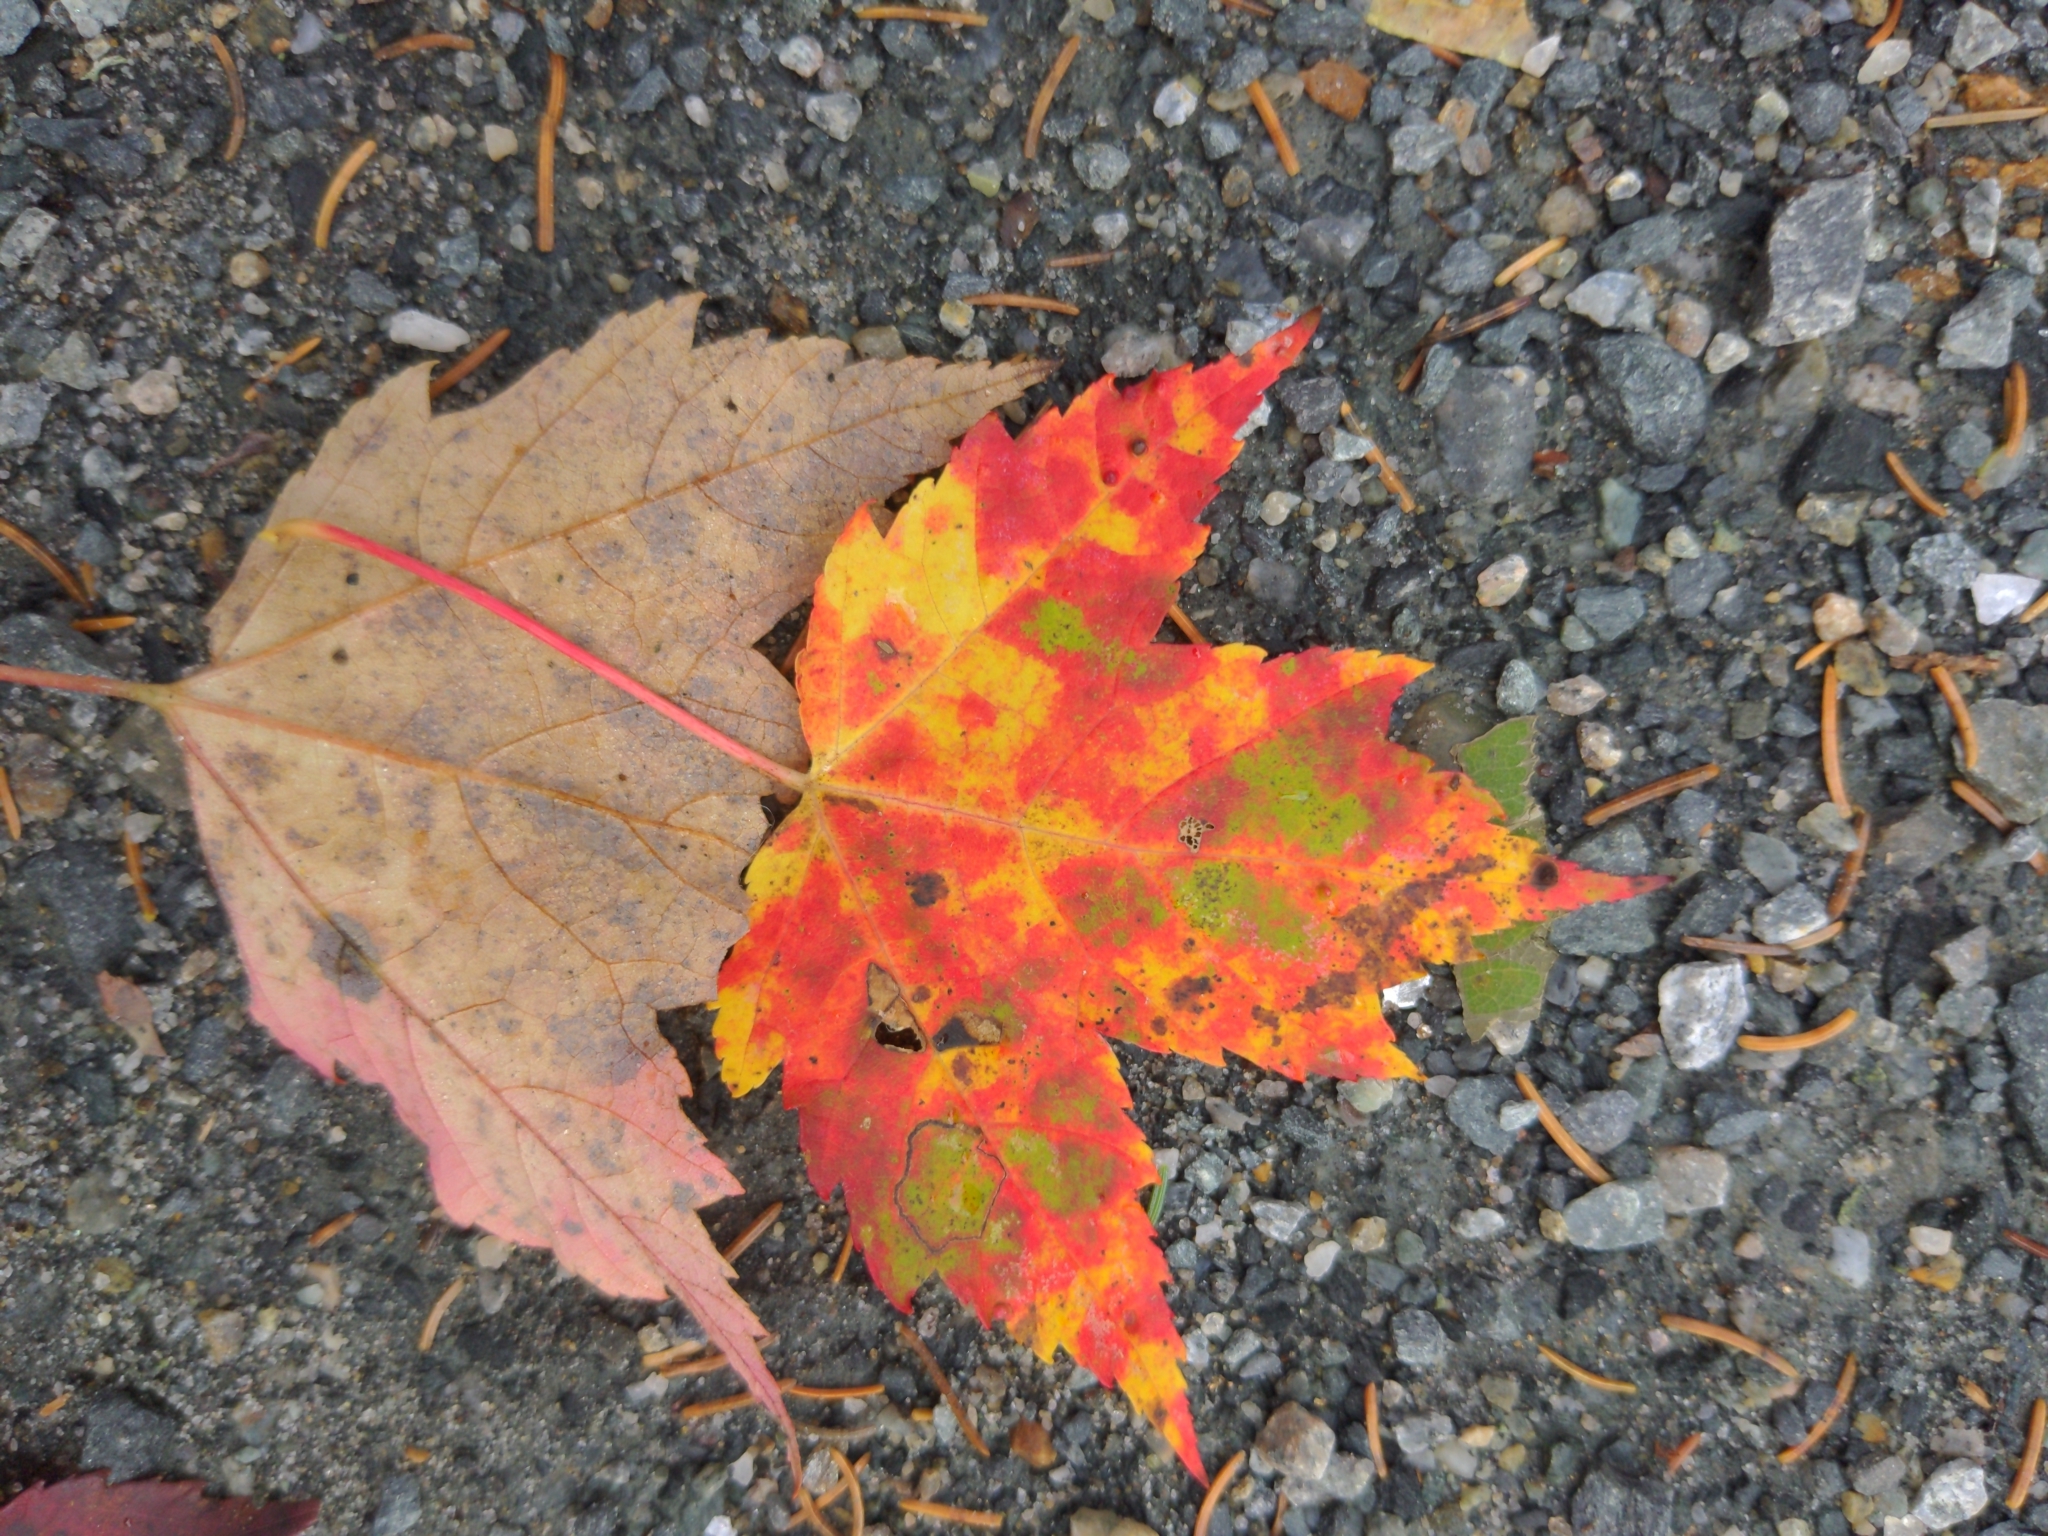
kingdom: Plantae
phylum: Tracheophyta
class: Magnoliopsida
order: Sapindales
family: Sapindaceae
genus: Acer
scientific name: Acer rubrum
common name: Red maple
